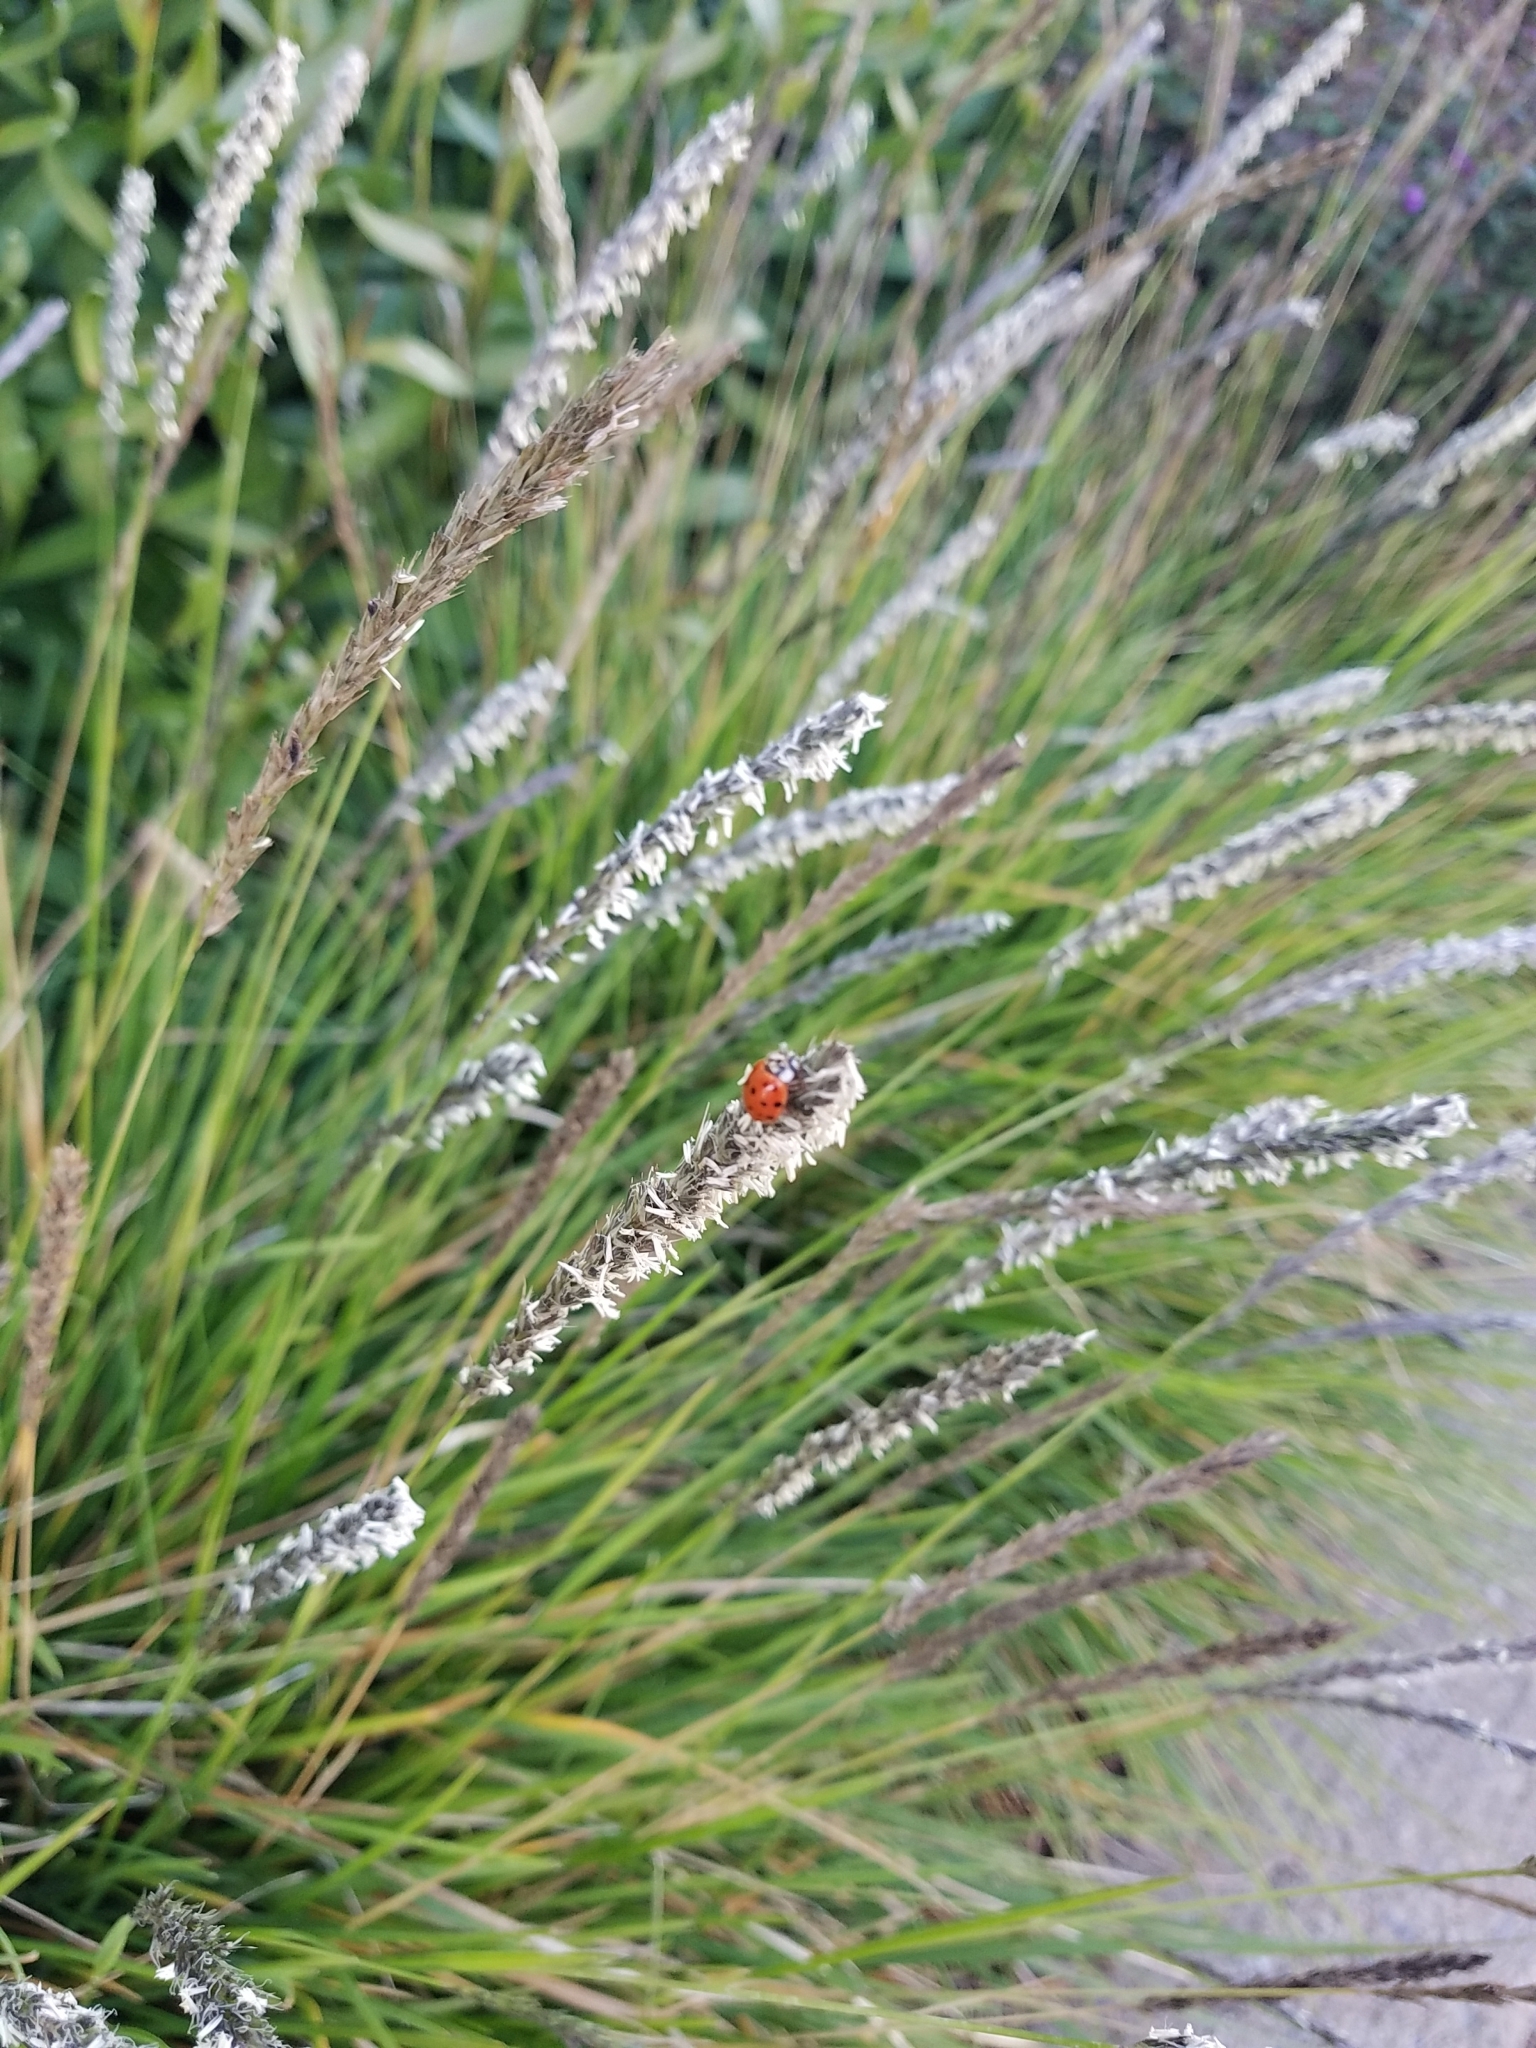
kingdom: Animalia
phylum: Arthropoda
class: Insecta
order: Coleoptera
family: Coccinellidae
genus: Harmonia
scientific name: Harmonia axyridis
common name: Harlequin ladybird
